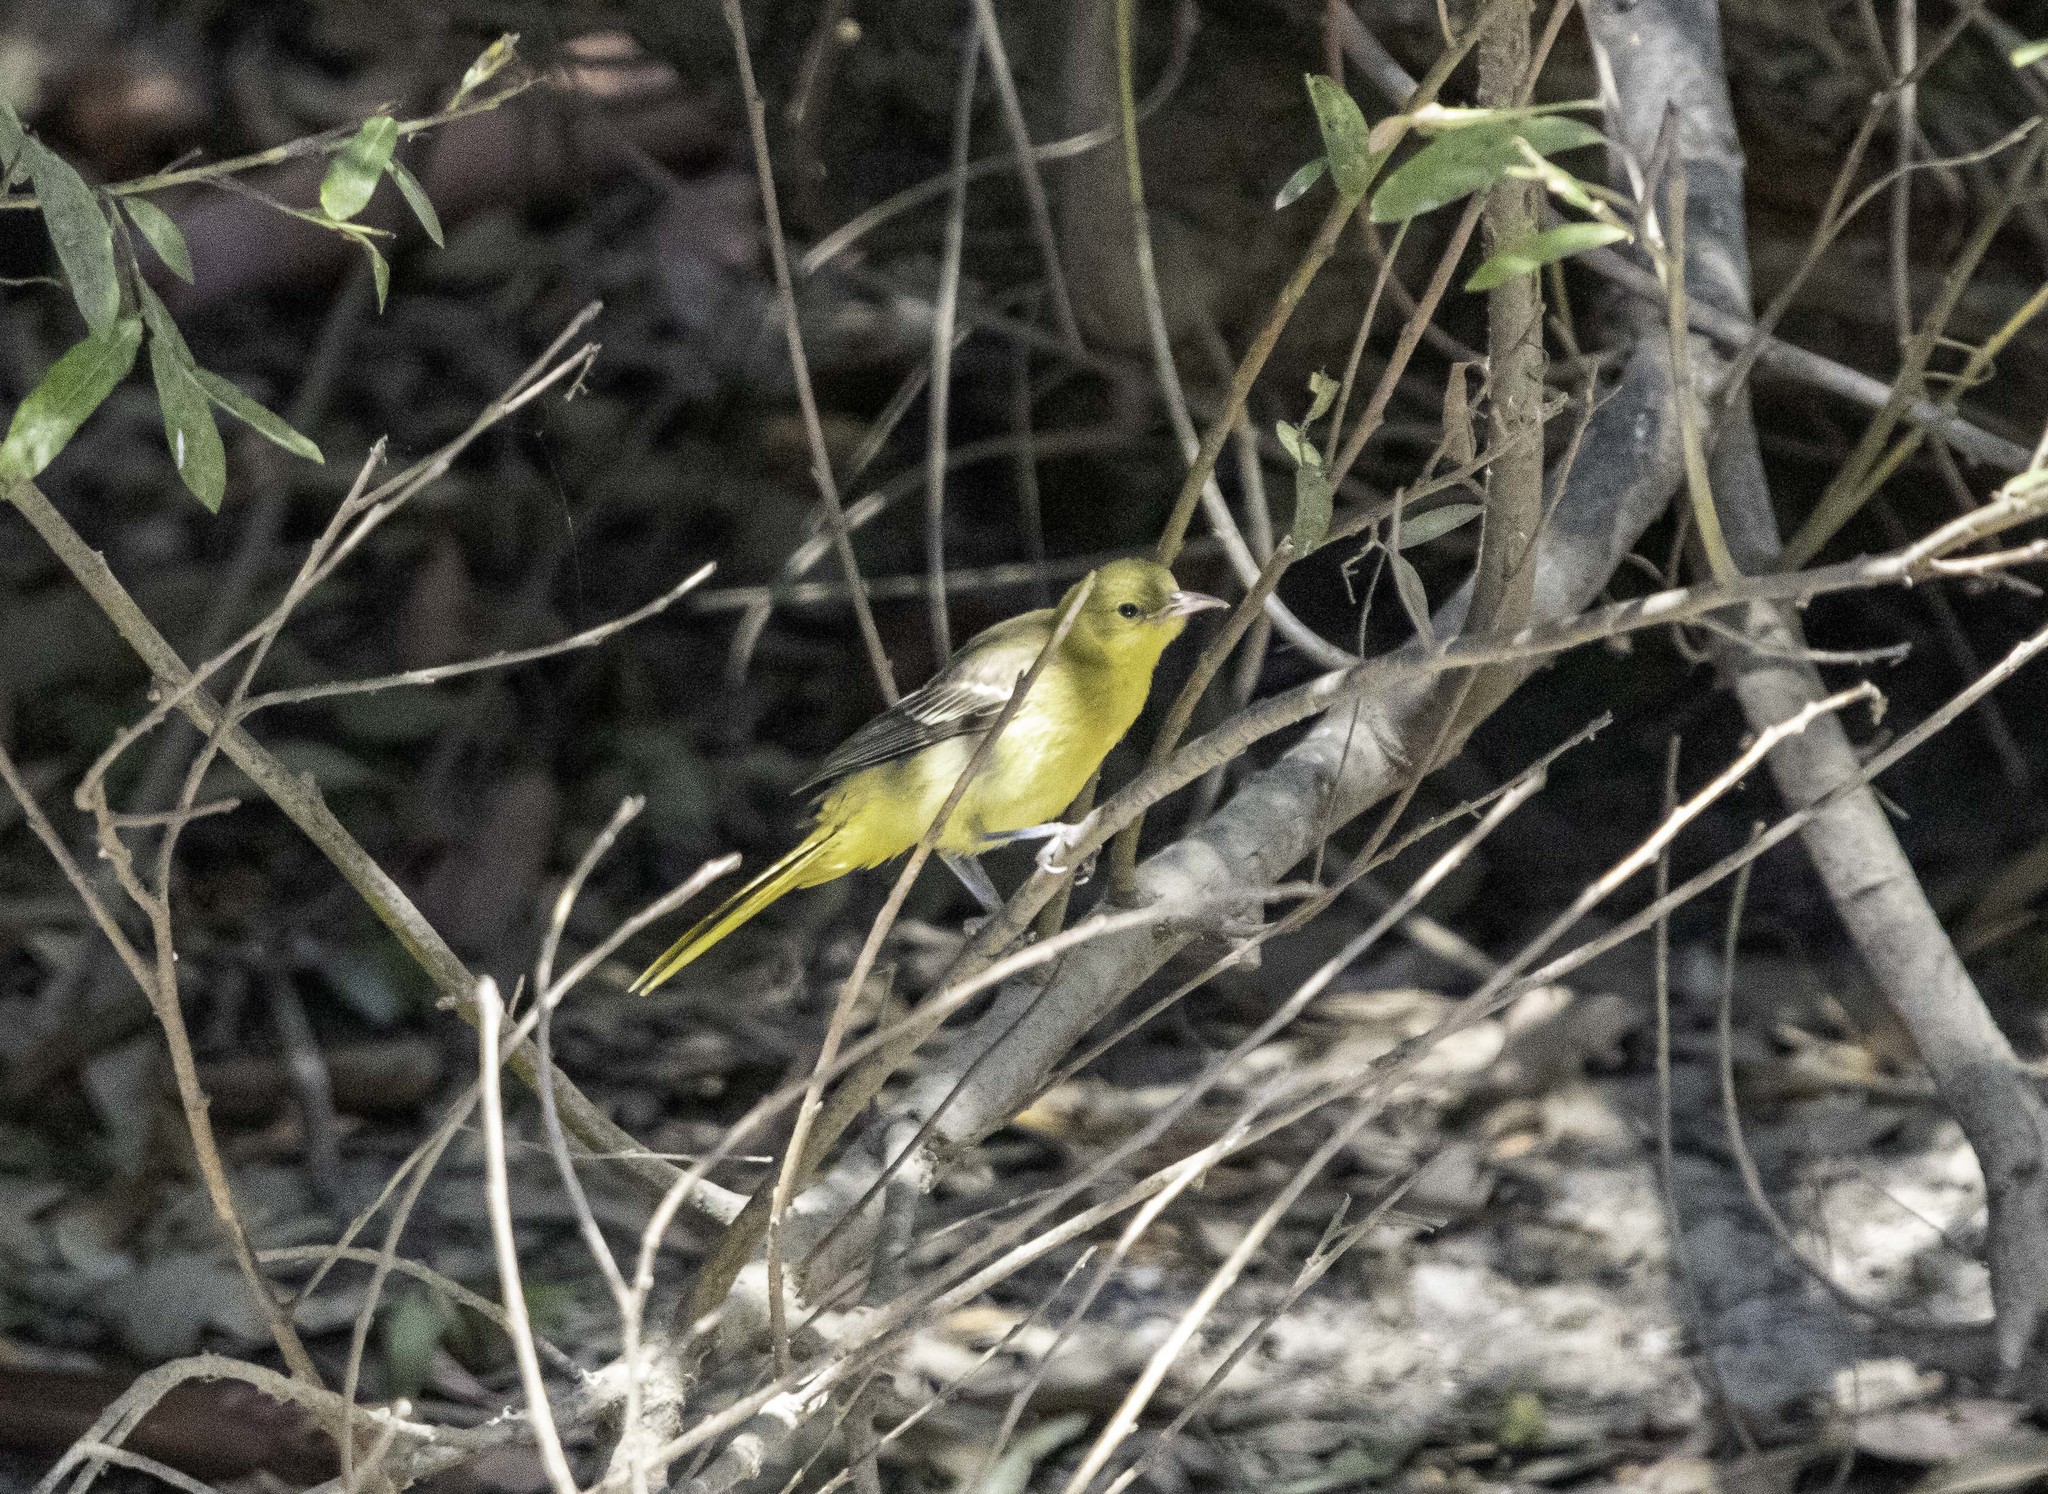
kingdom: Animalia
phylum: Chordata
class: Aves
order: Passeriformes
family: Icteridae
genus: Icterus
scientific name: Icterus cucullatus
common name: Hooded oriole
